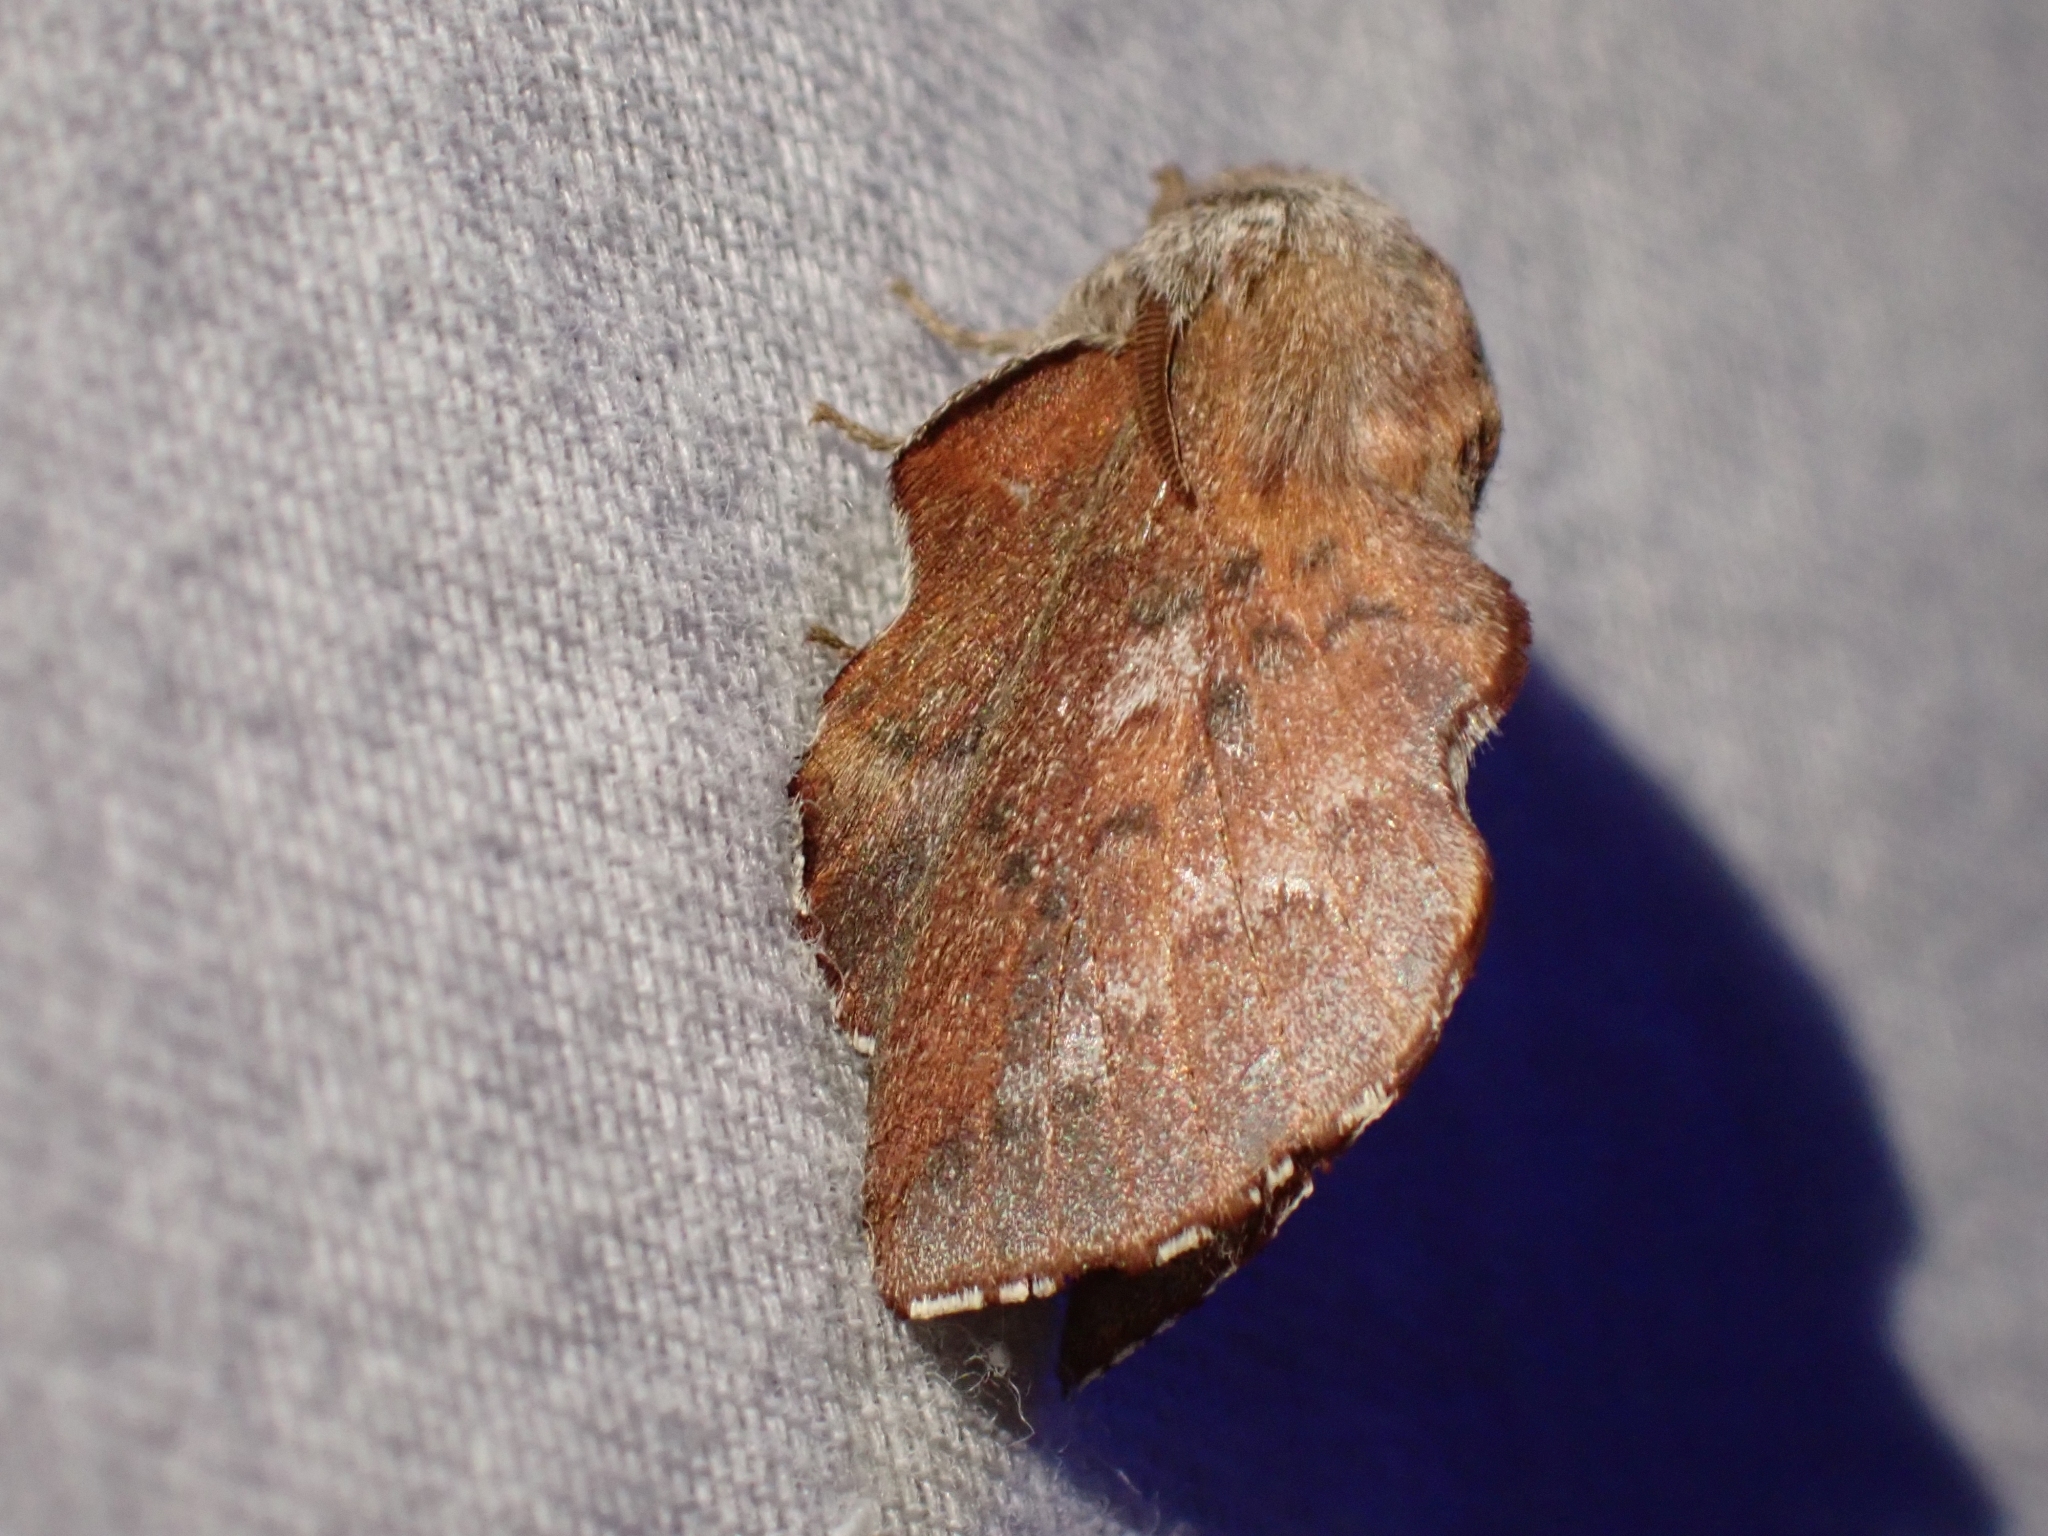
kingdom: Animalia
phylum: Arthropoda
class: Insecta
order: Lepidoptera
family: Lasiocampidae
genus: Phyllodesma
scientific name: Phyllodesma americana
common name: American lappet moth
